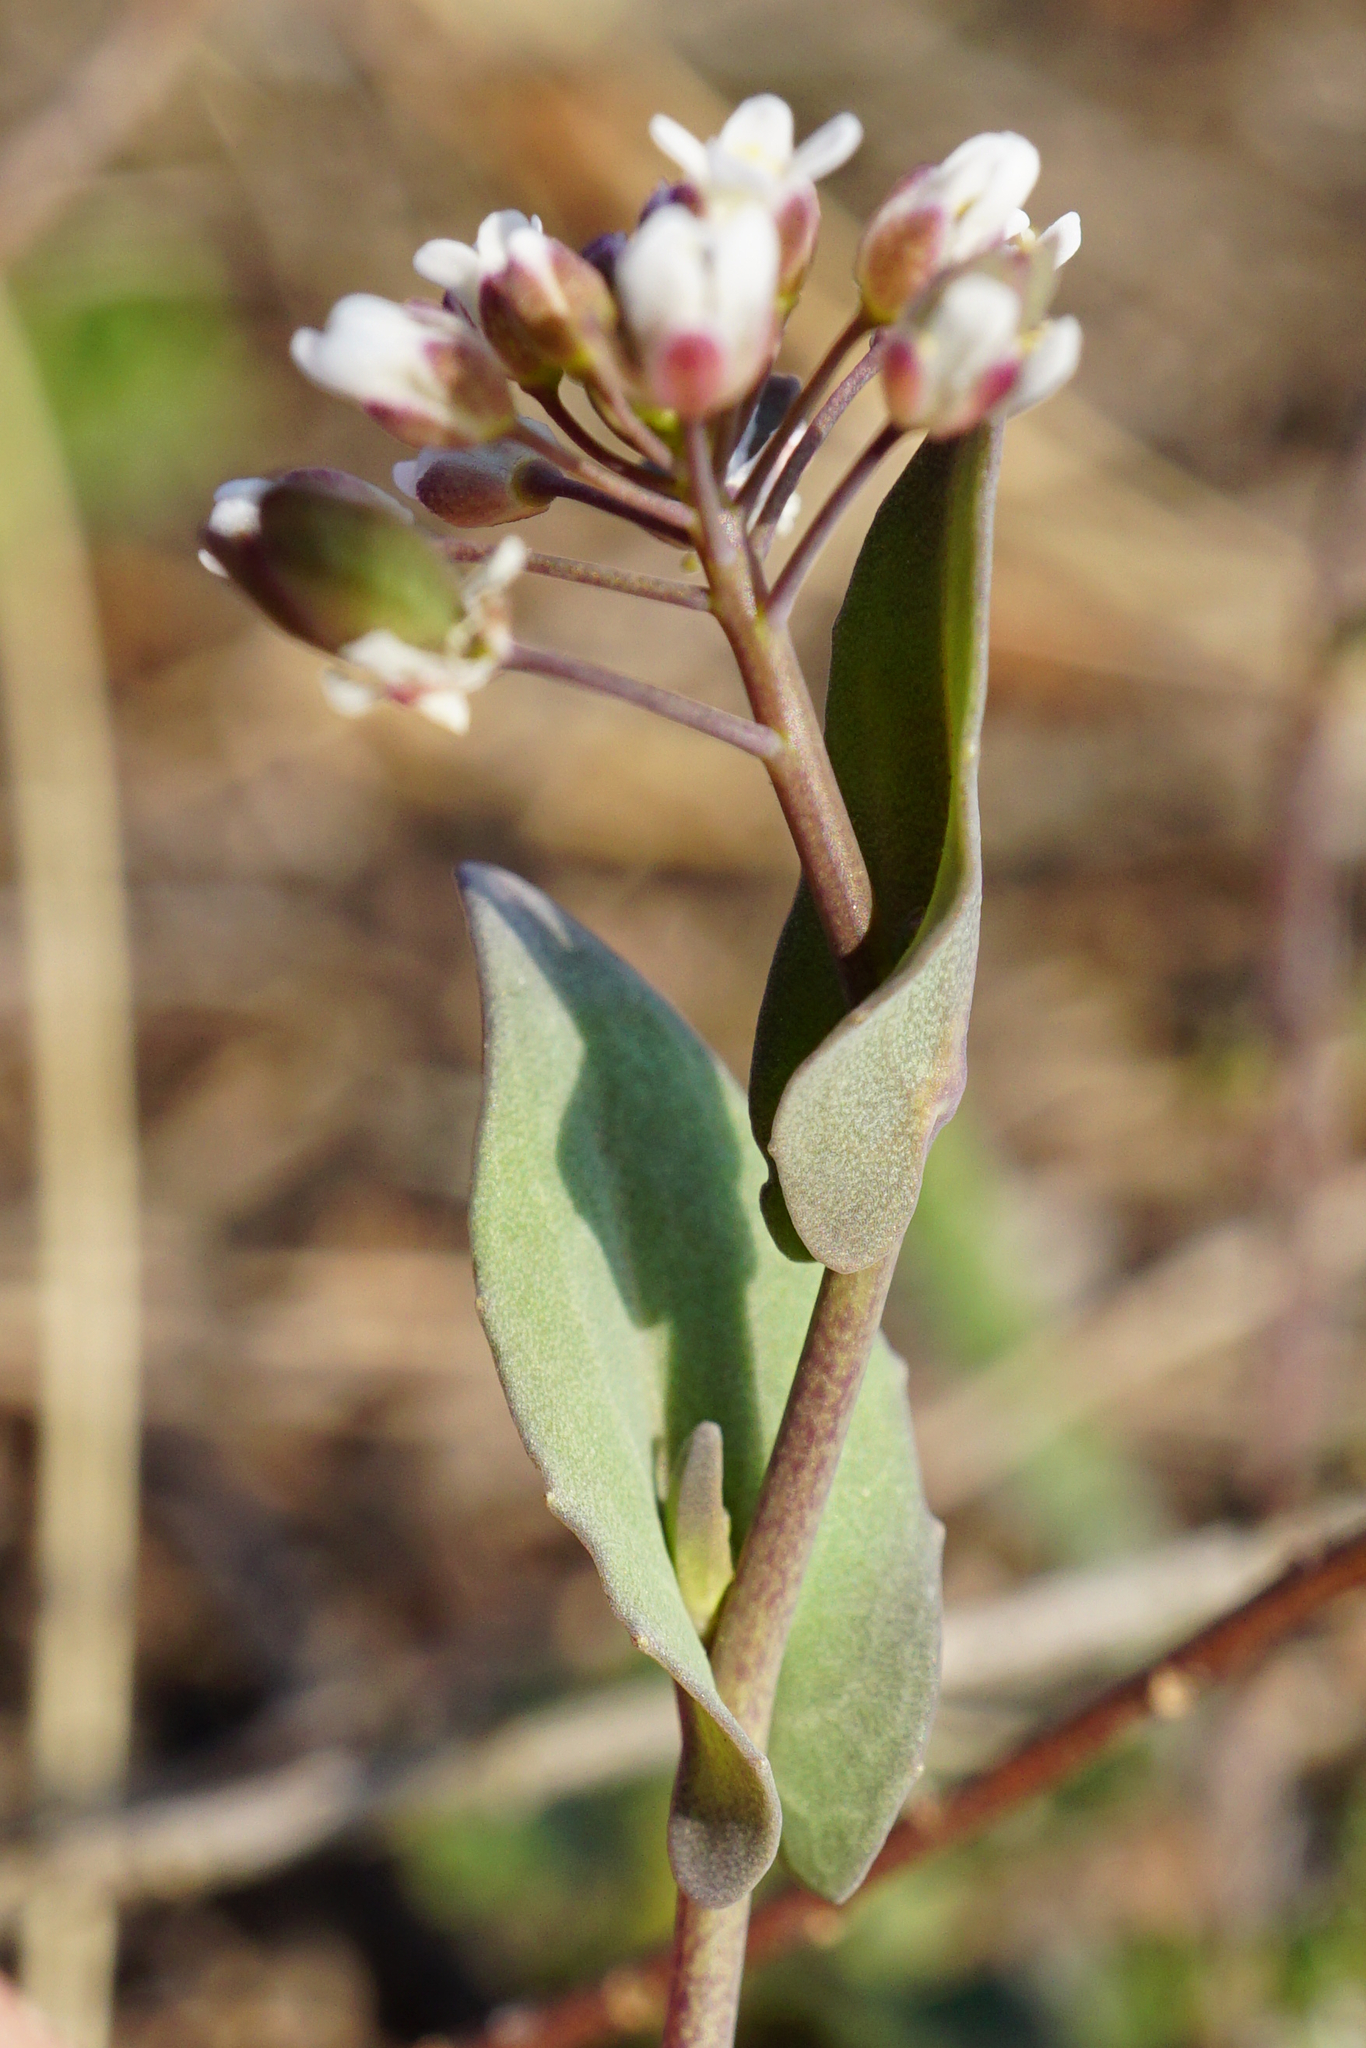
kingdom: Plantae
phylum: Tracheophyta
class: Magnoliopsida
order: Brassicales
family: Brassicaceae
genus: Noccaea
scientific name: Noccaea perfoliata
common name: Perfoliate pennycress
